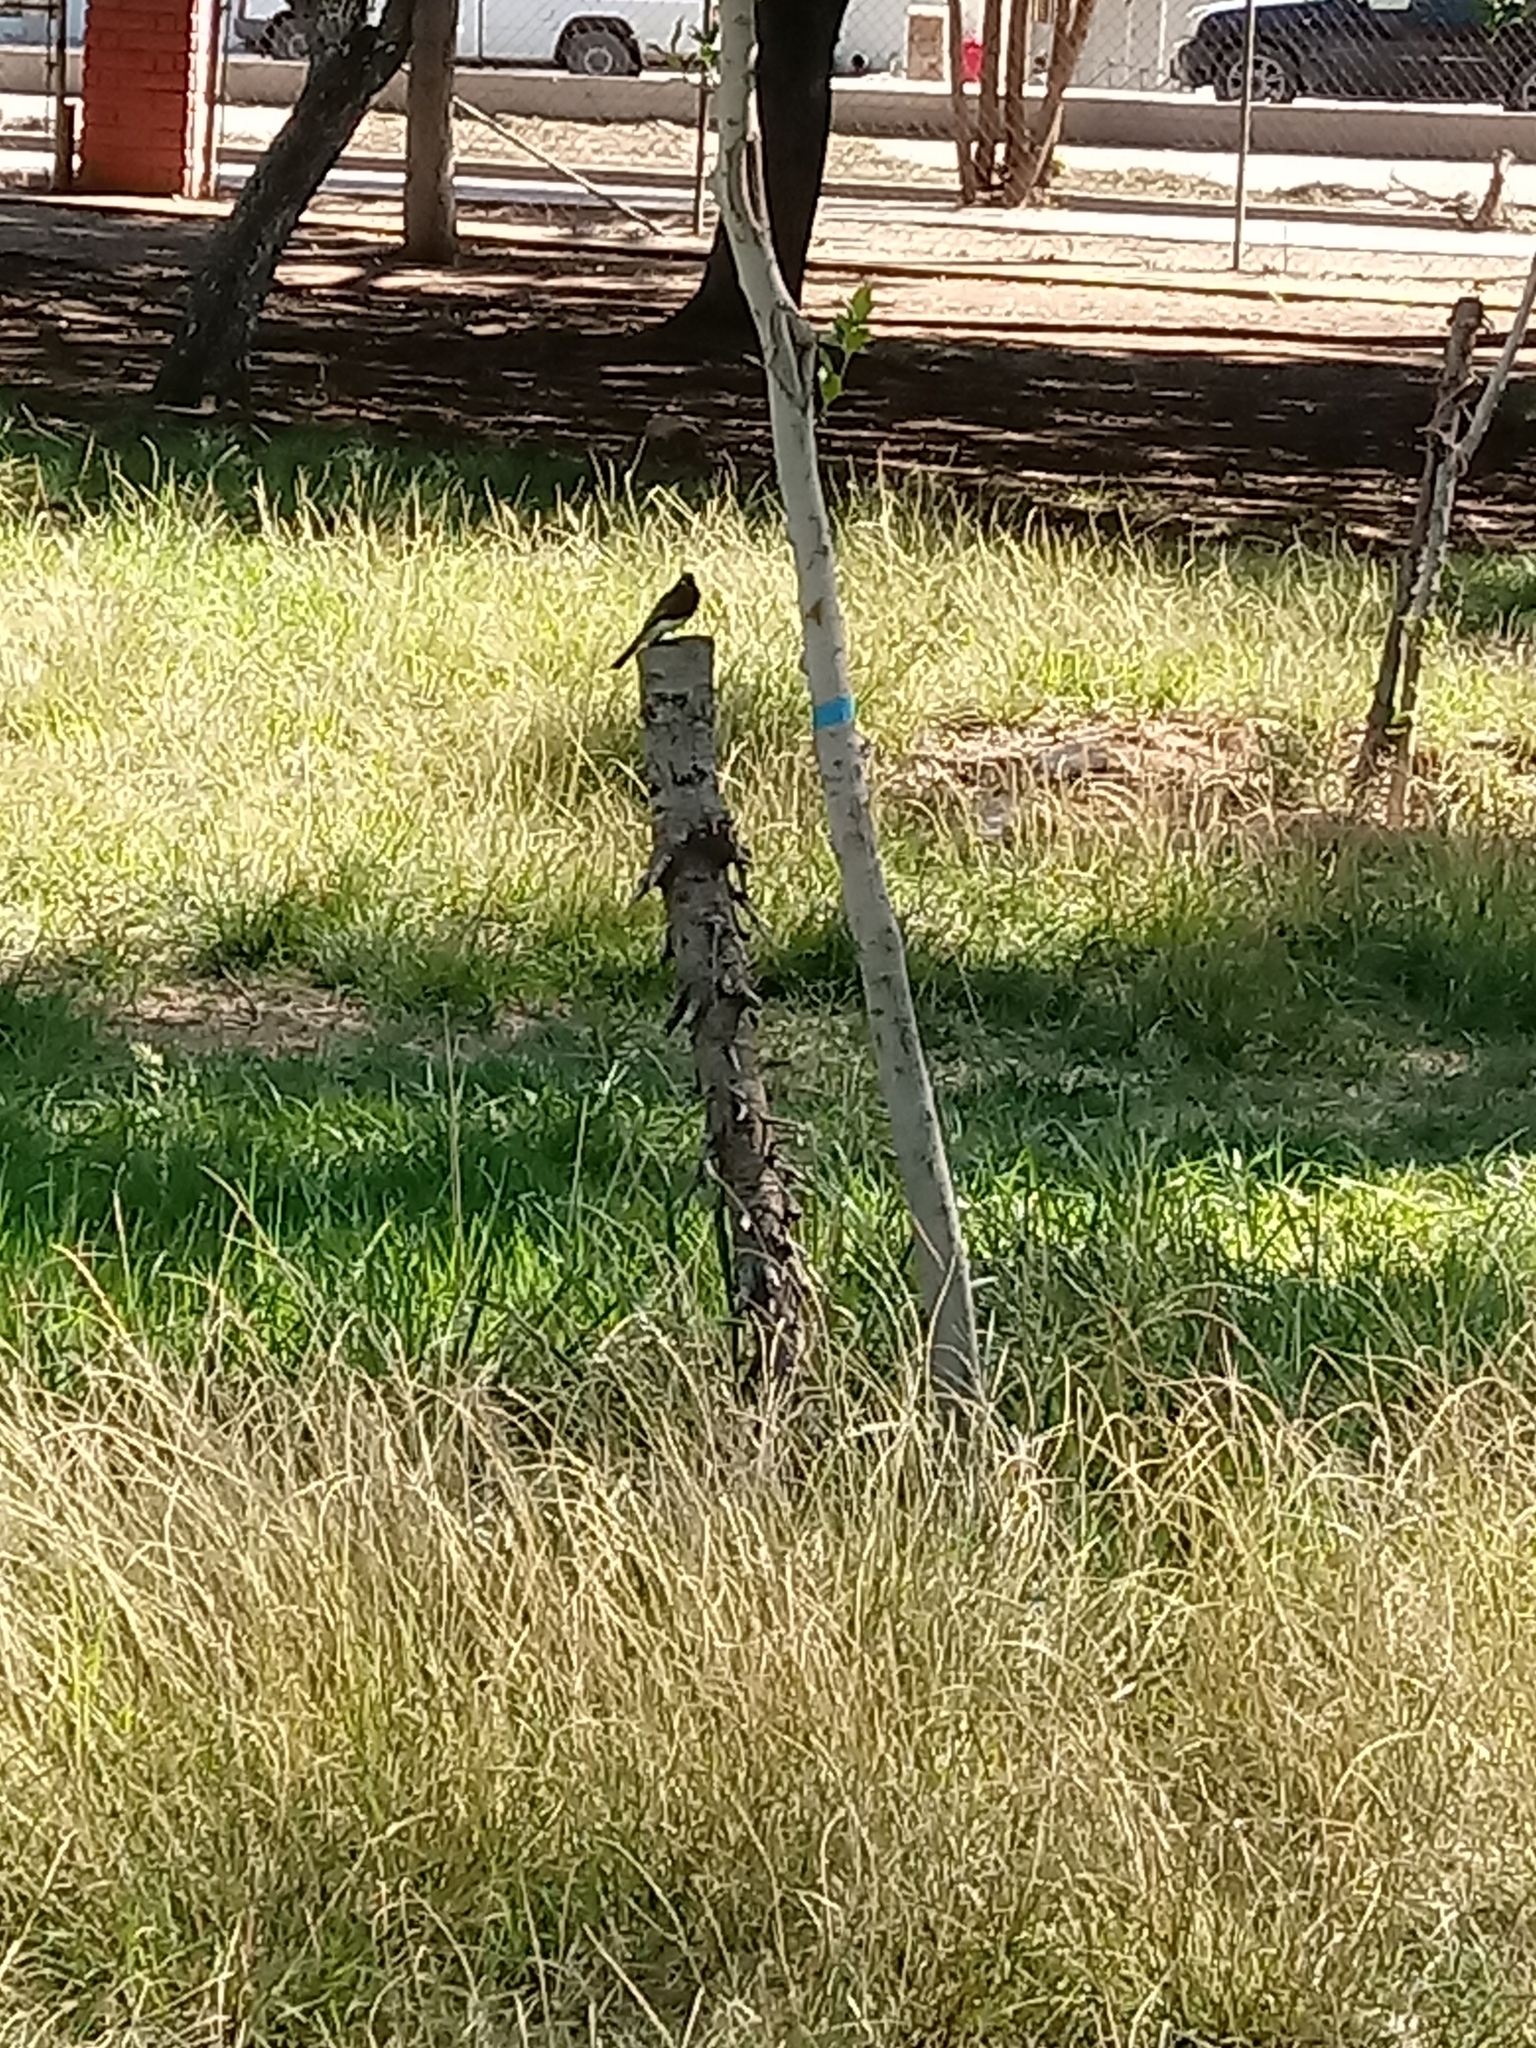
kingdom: Animalia
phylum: Chordata
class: Aves
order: Passeriformes
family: Tyrannidae
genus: Sayornis
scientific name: Sayornis nigricans
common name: Black phoebe
